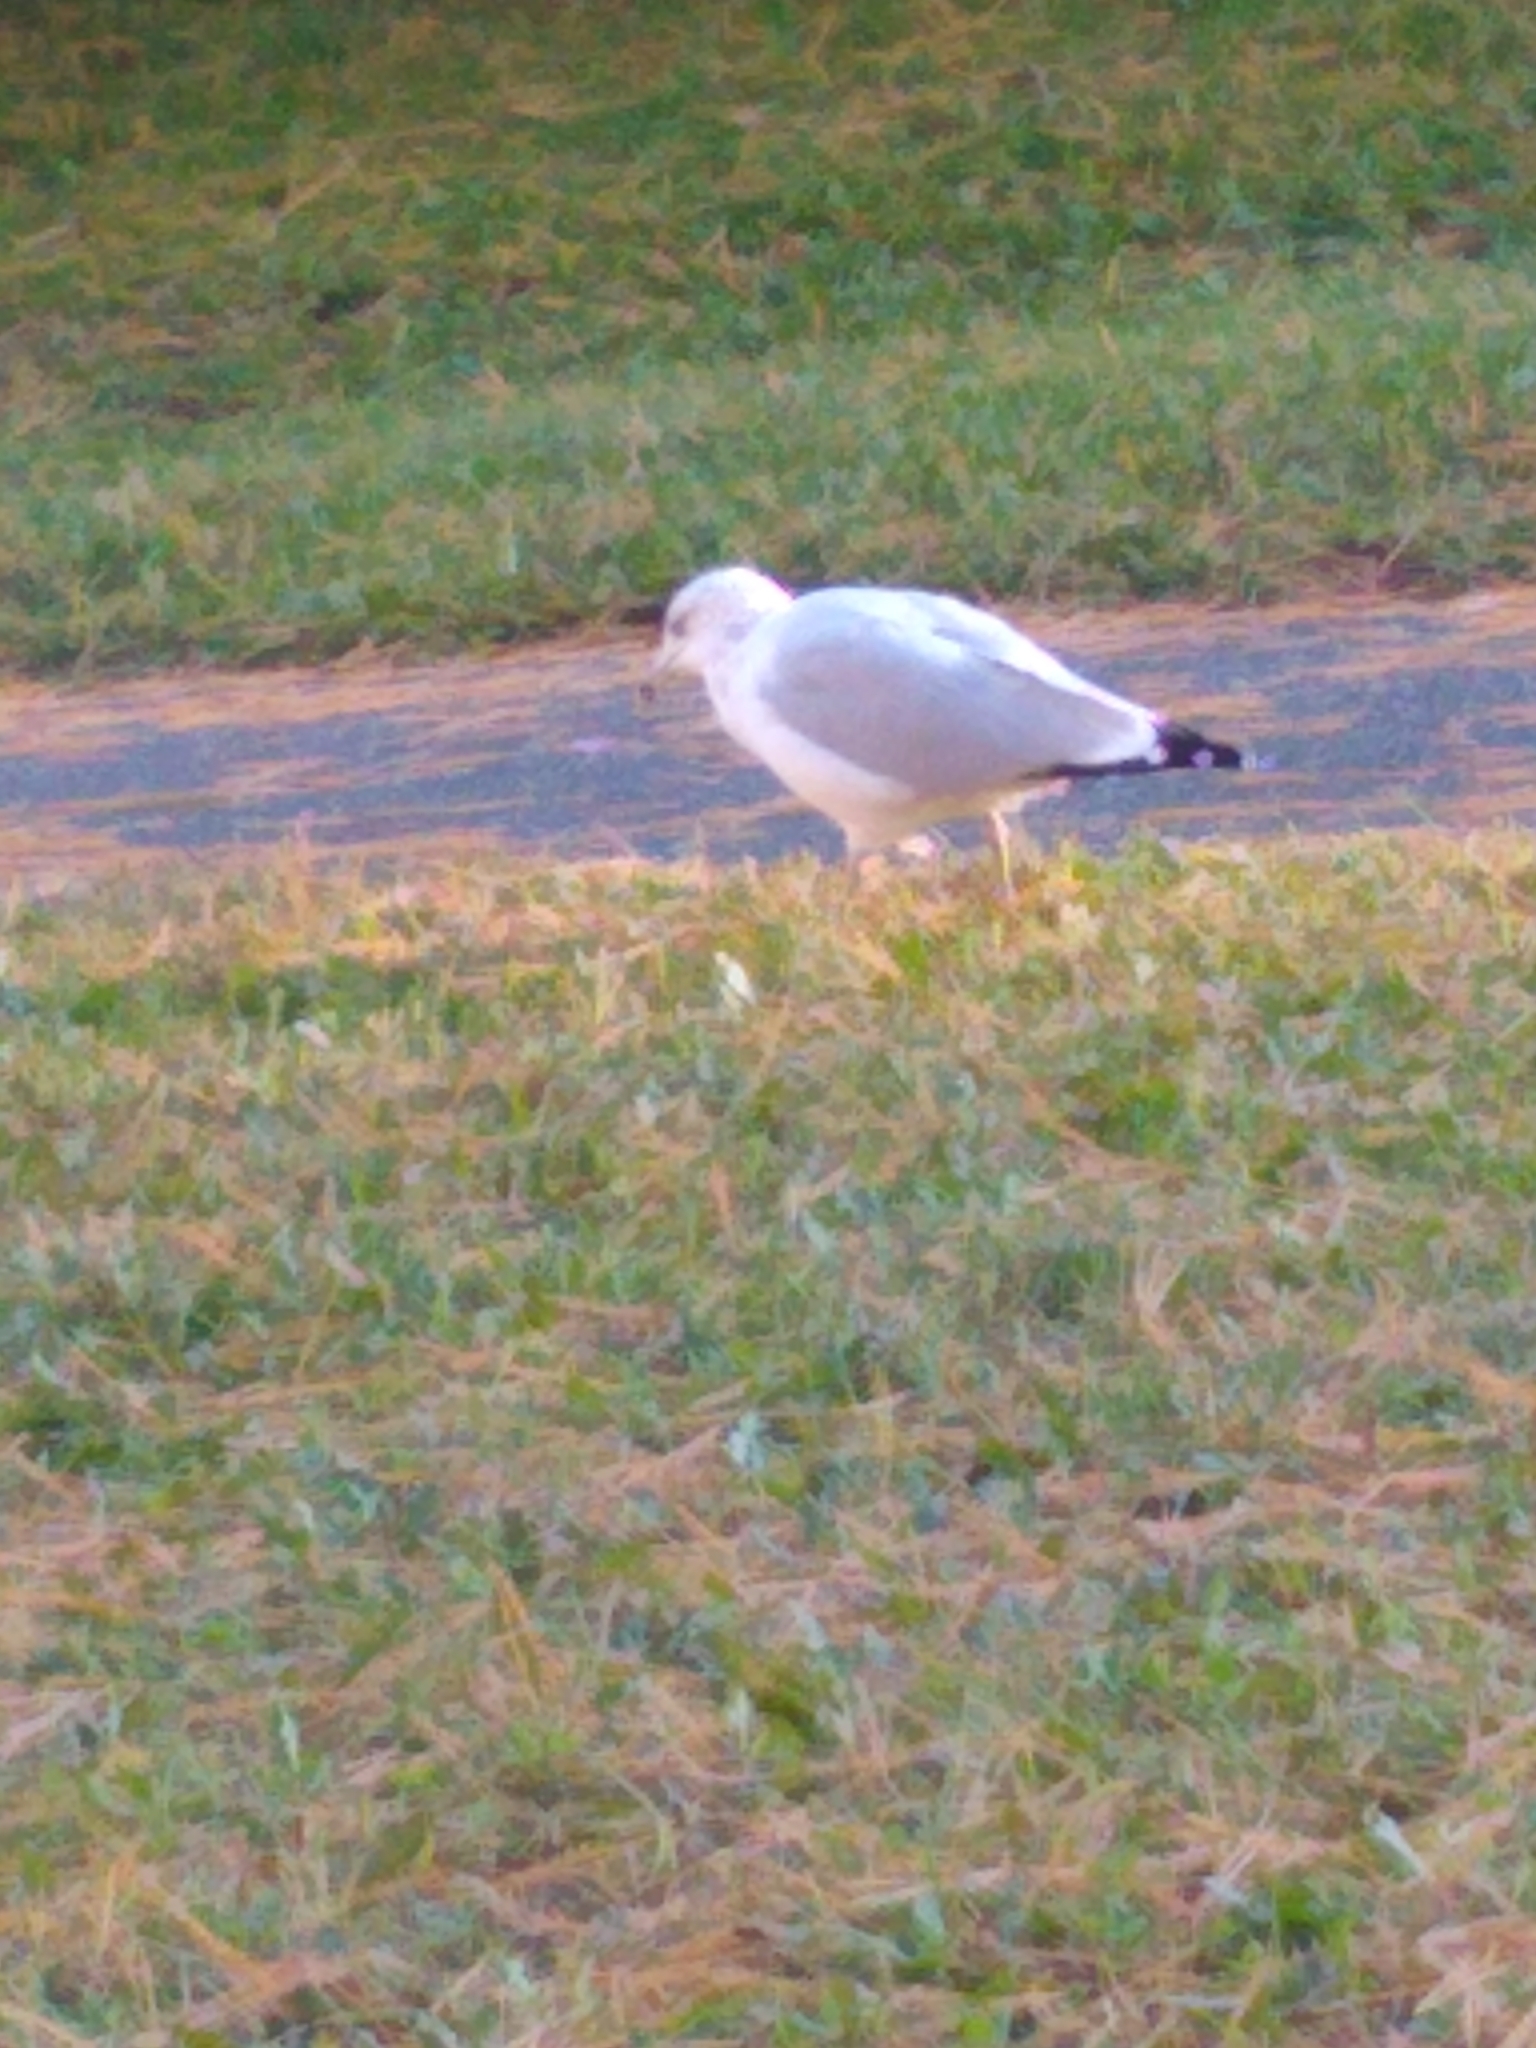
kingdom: Animalia
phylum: Chordata
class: Aves
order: Charadriiformes
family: Laridae
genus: Larus
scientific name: Larus delawarensis
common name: Ring-billed gull
